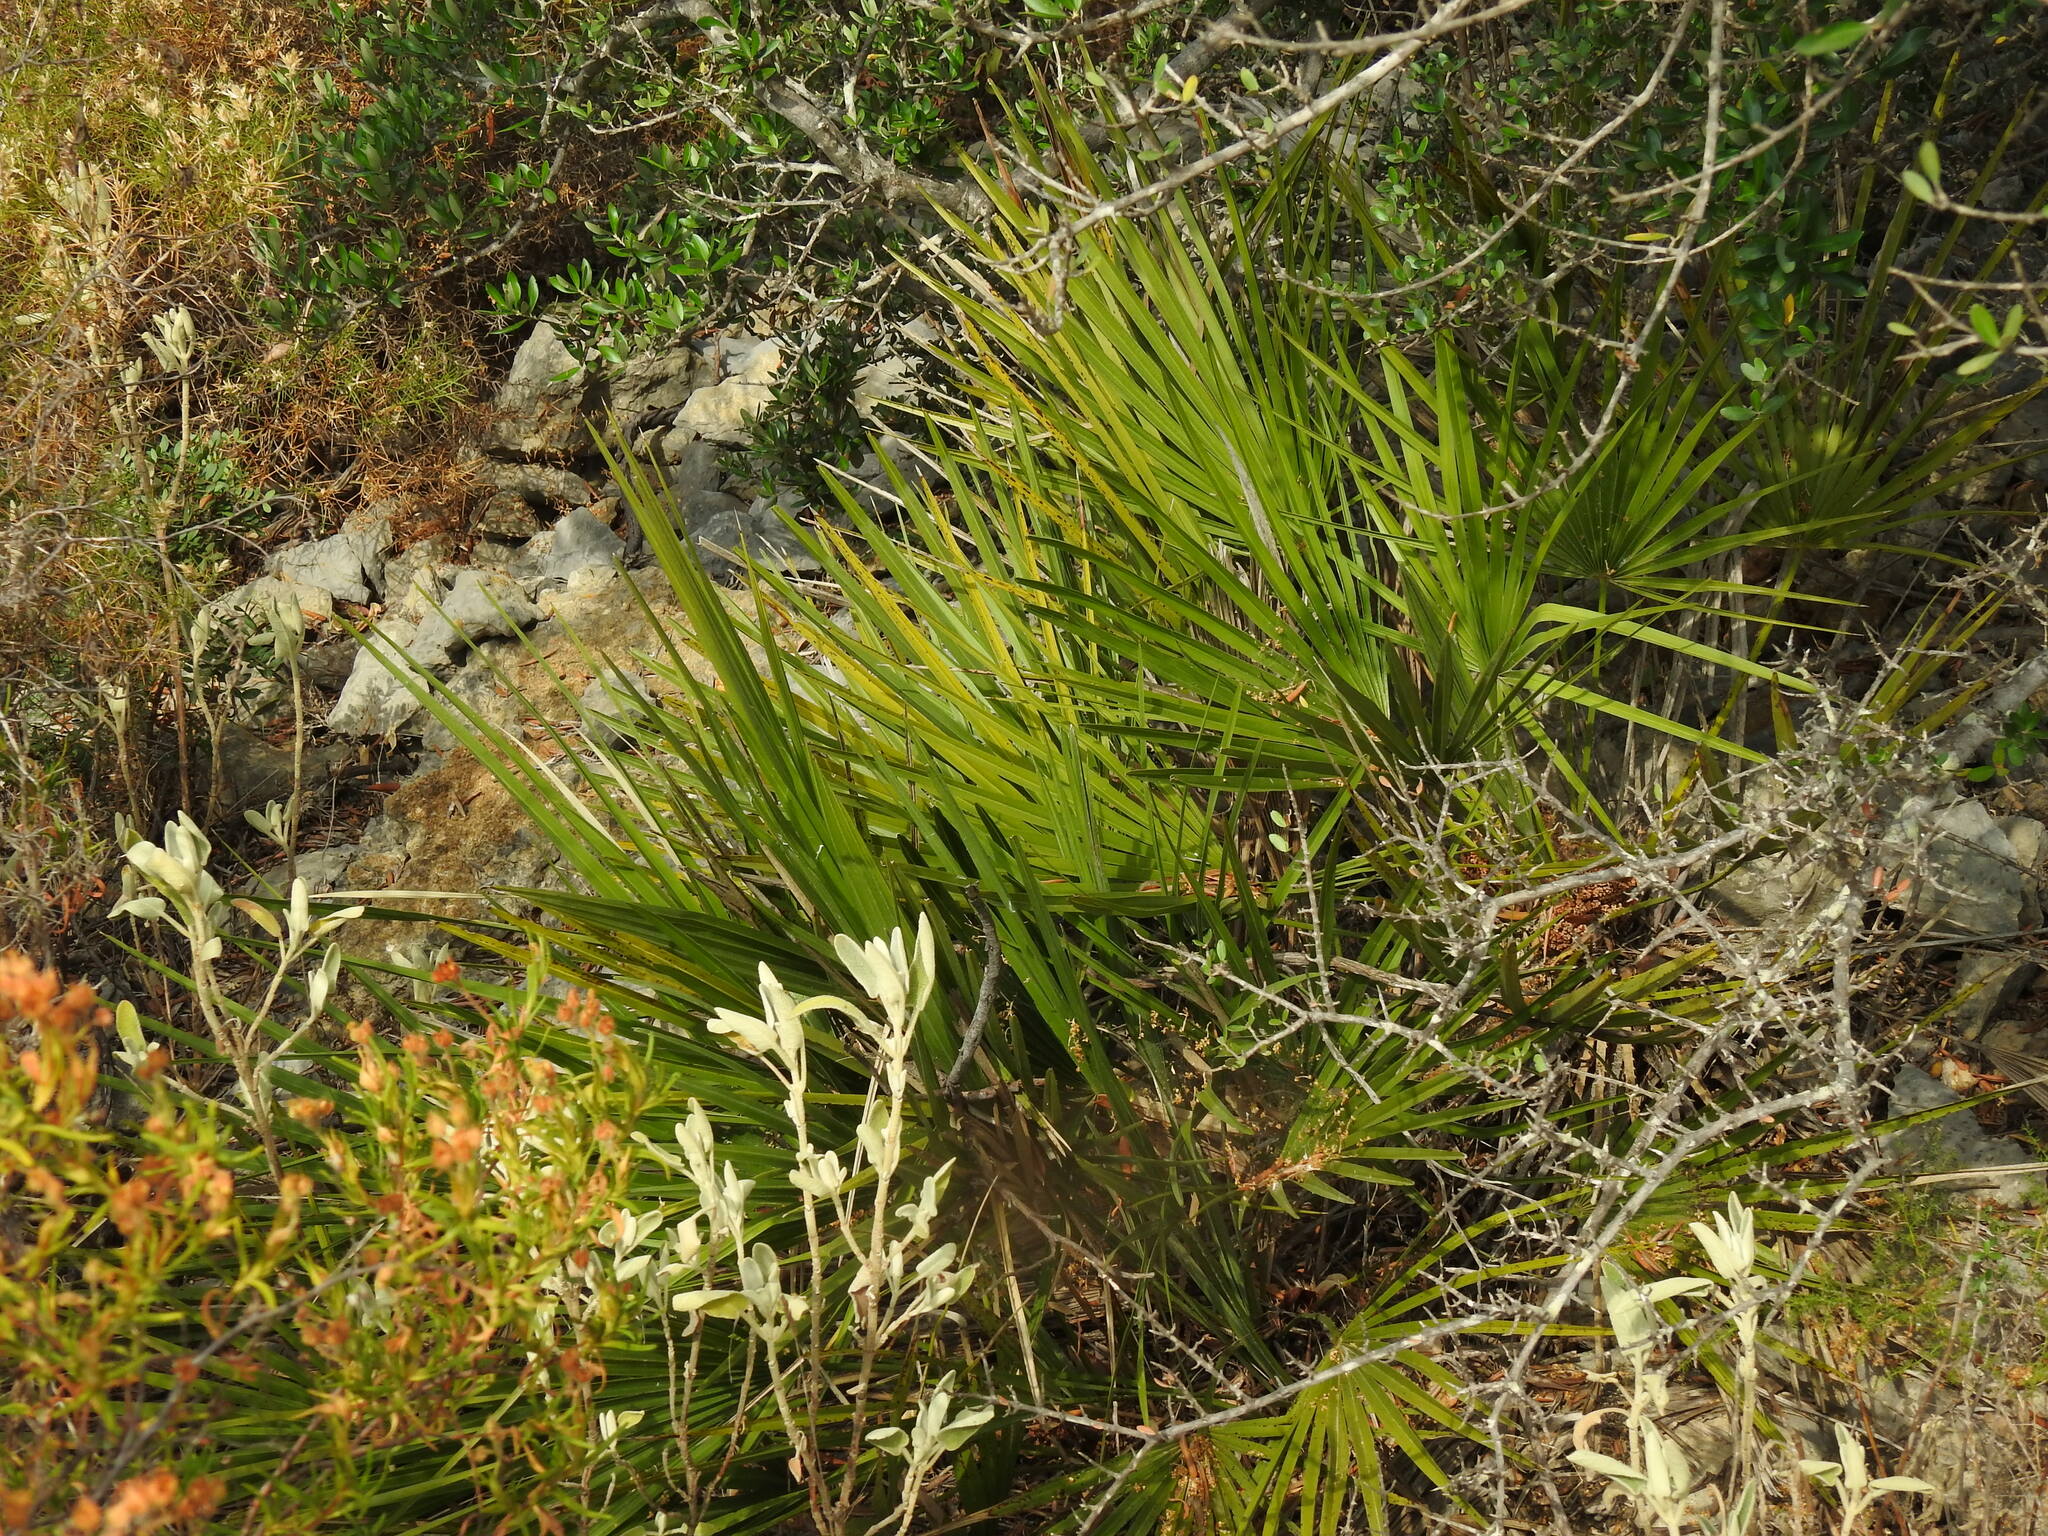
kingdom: Plantae
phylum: Tracheophyta
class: Liliopsida
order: Arecales
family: Arecaceae
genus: Chamaerops
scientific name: Chamaerops humilis
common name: Dwarf fan palm
